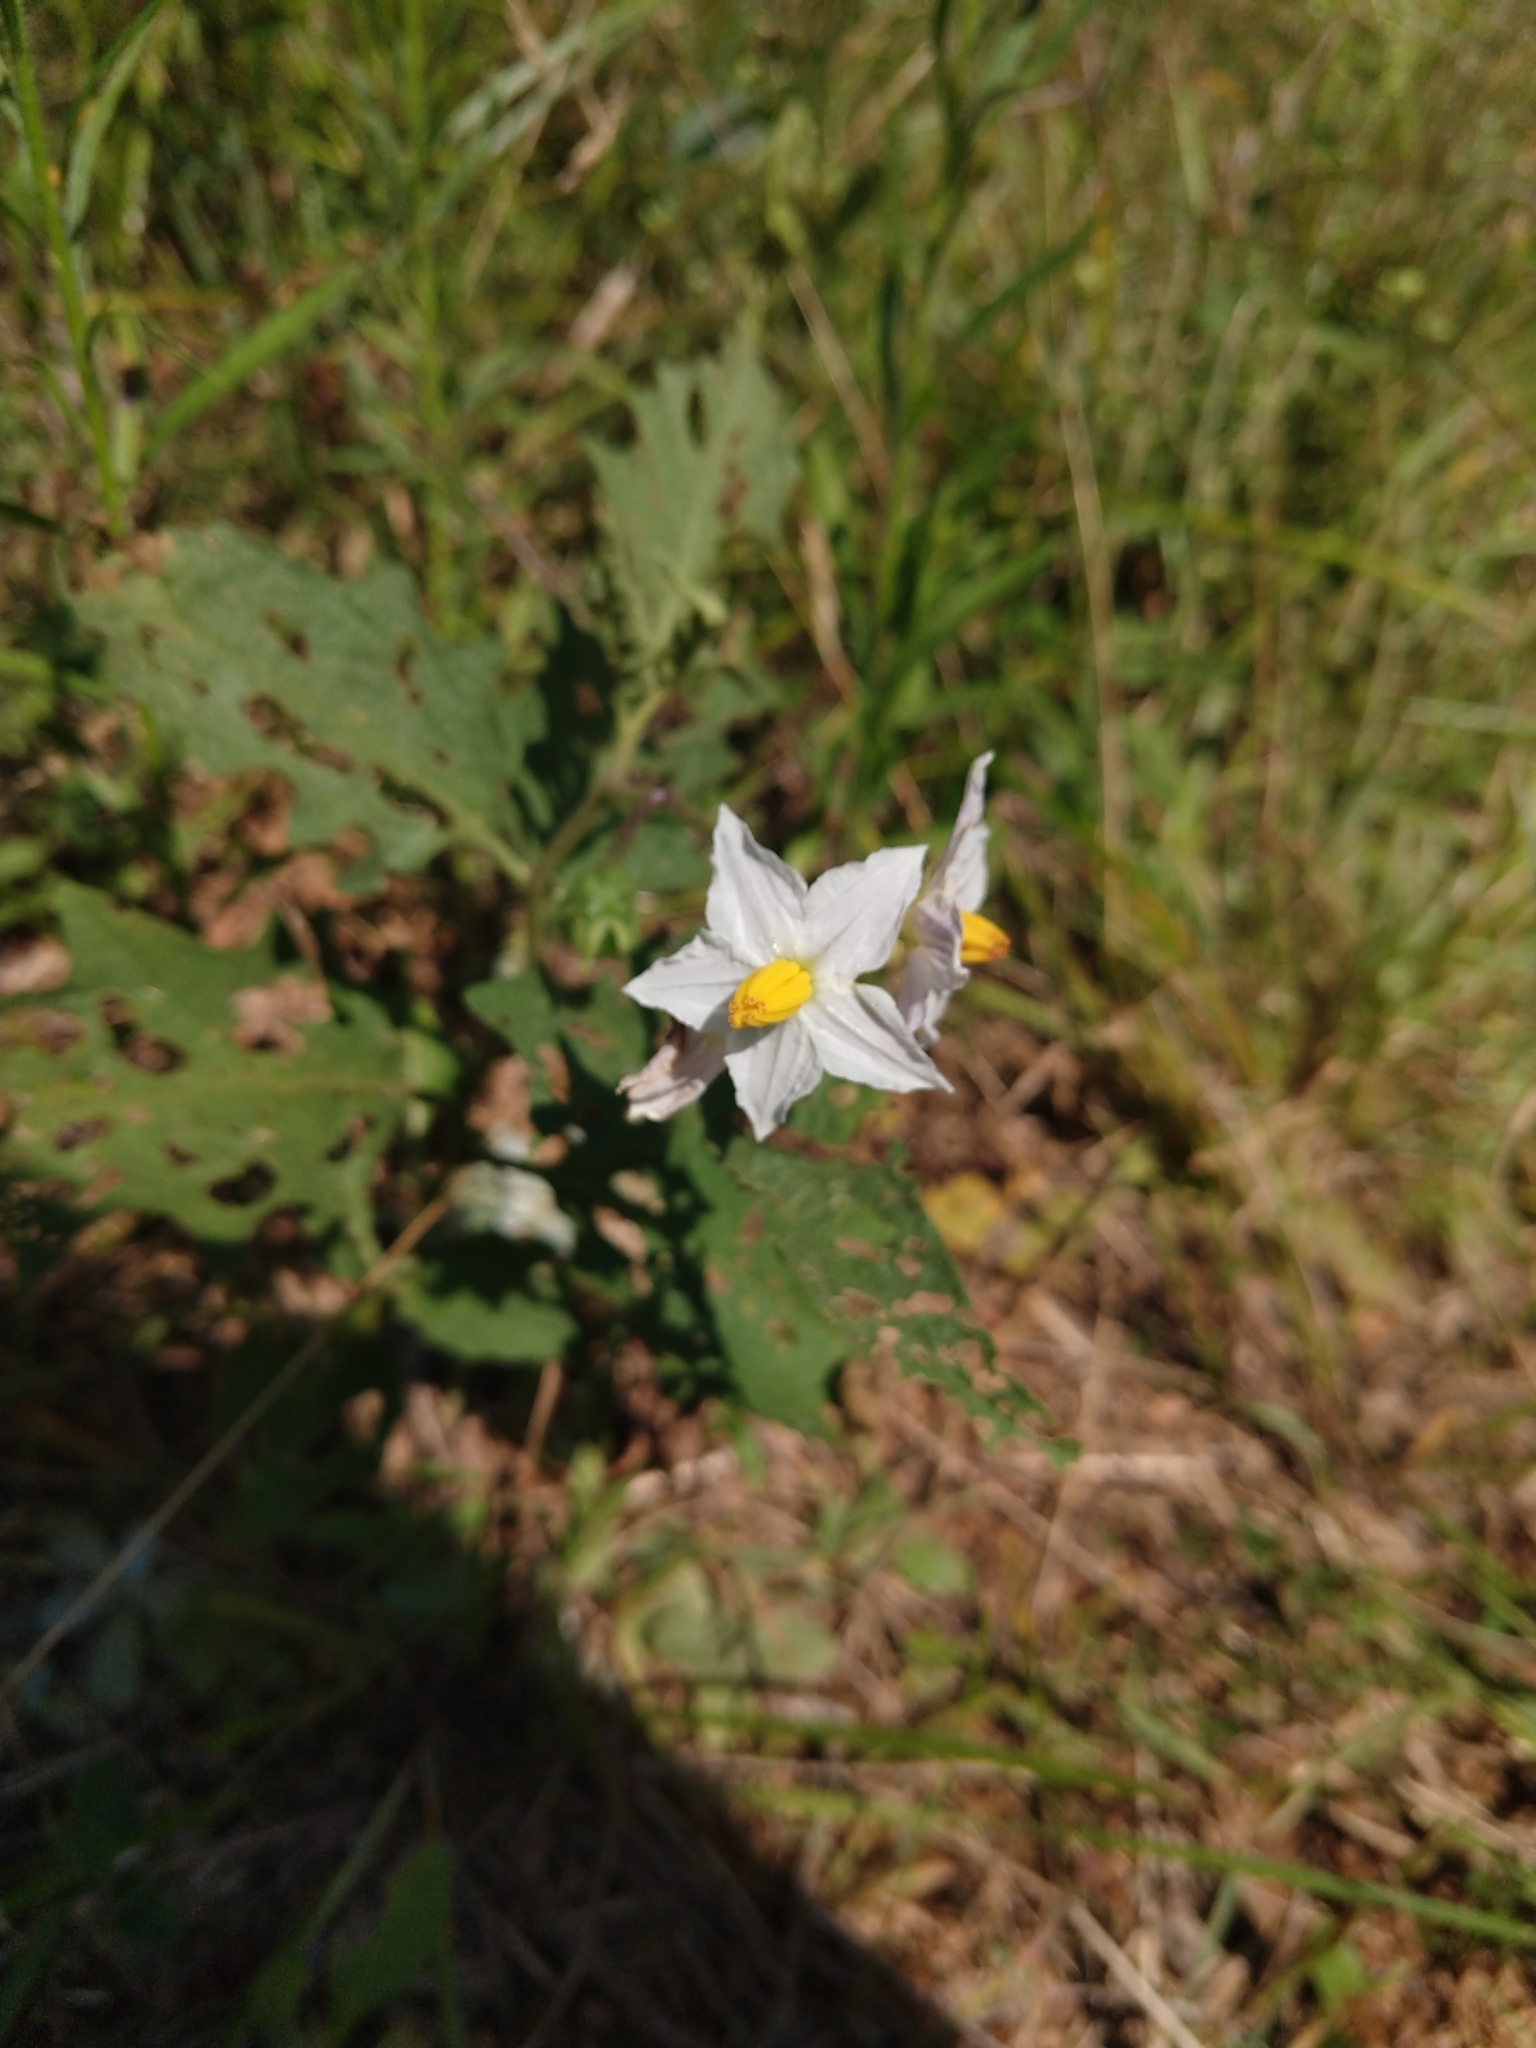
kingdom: Plantae
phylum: Tracheophyta
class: Magnoliopsida
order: Solanales
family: Solanaceae
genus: Solanum
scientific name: Solanum carolinense
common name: Horse-nettle
